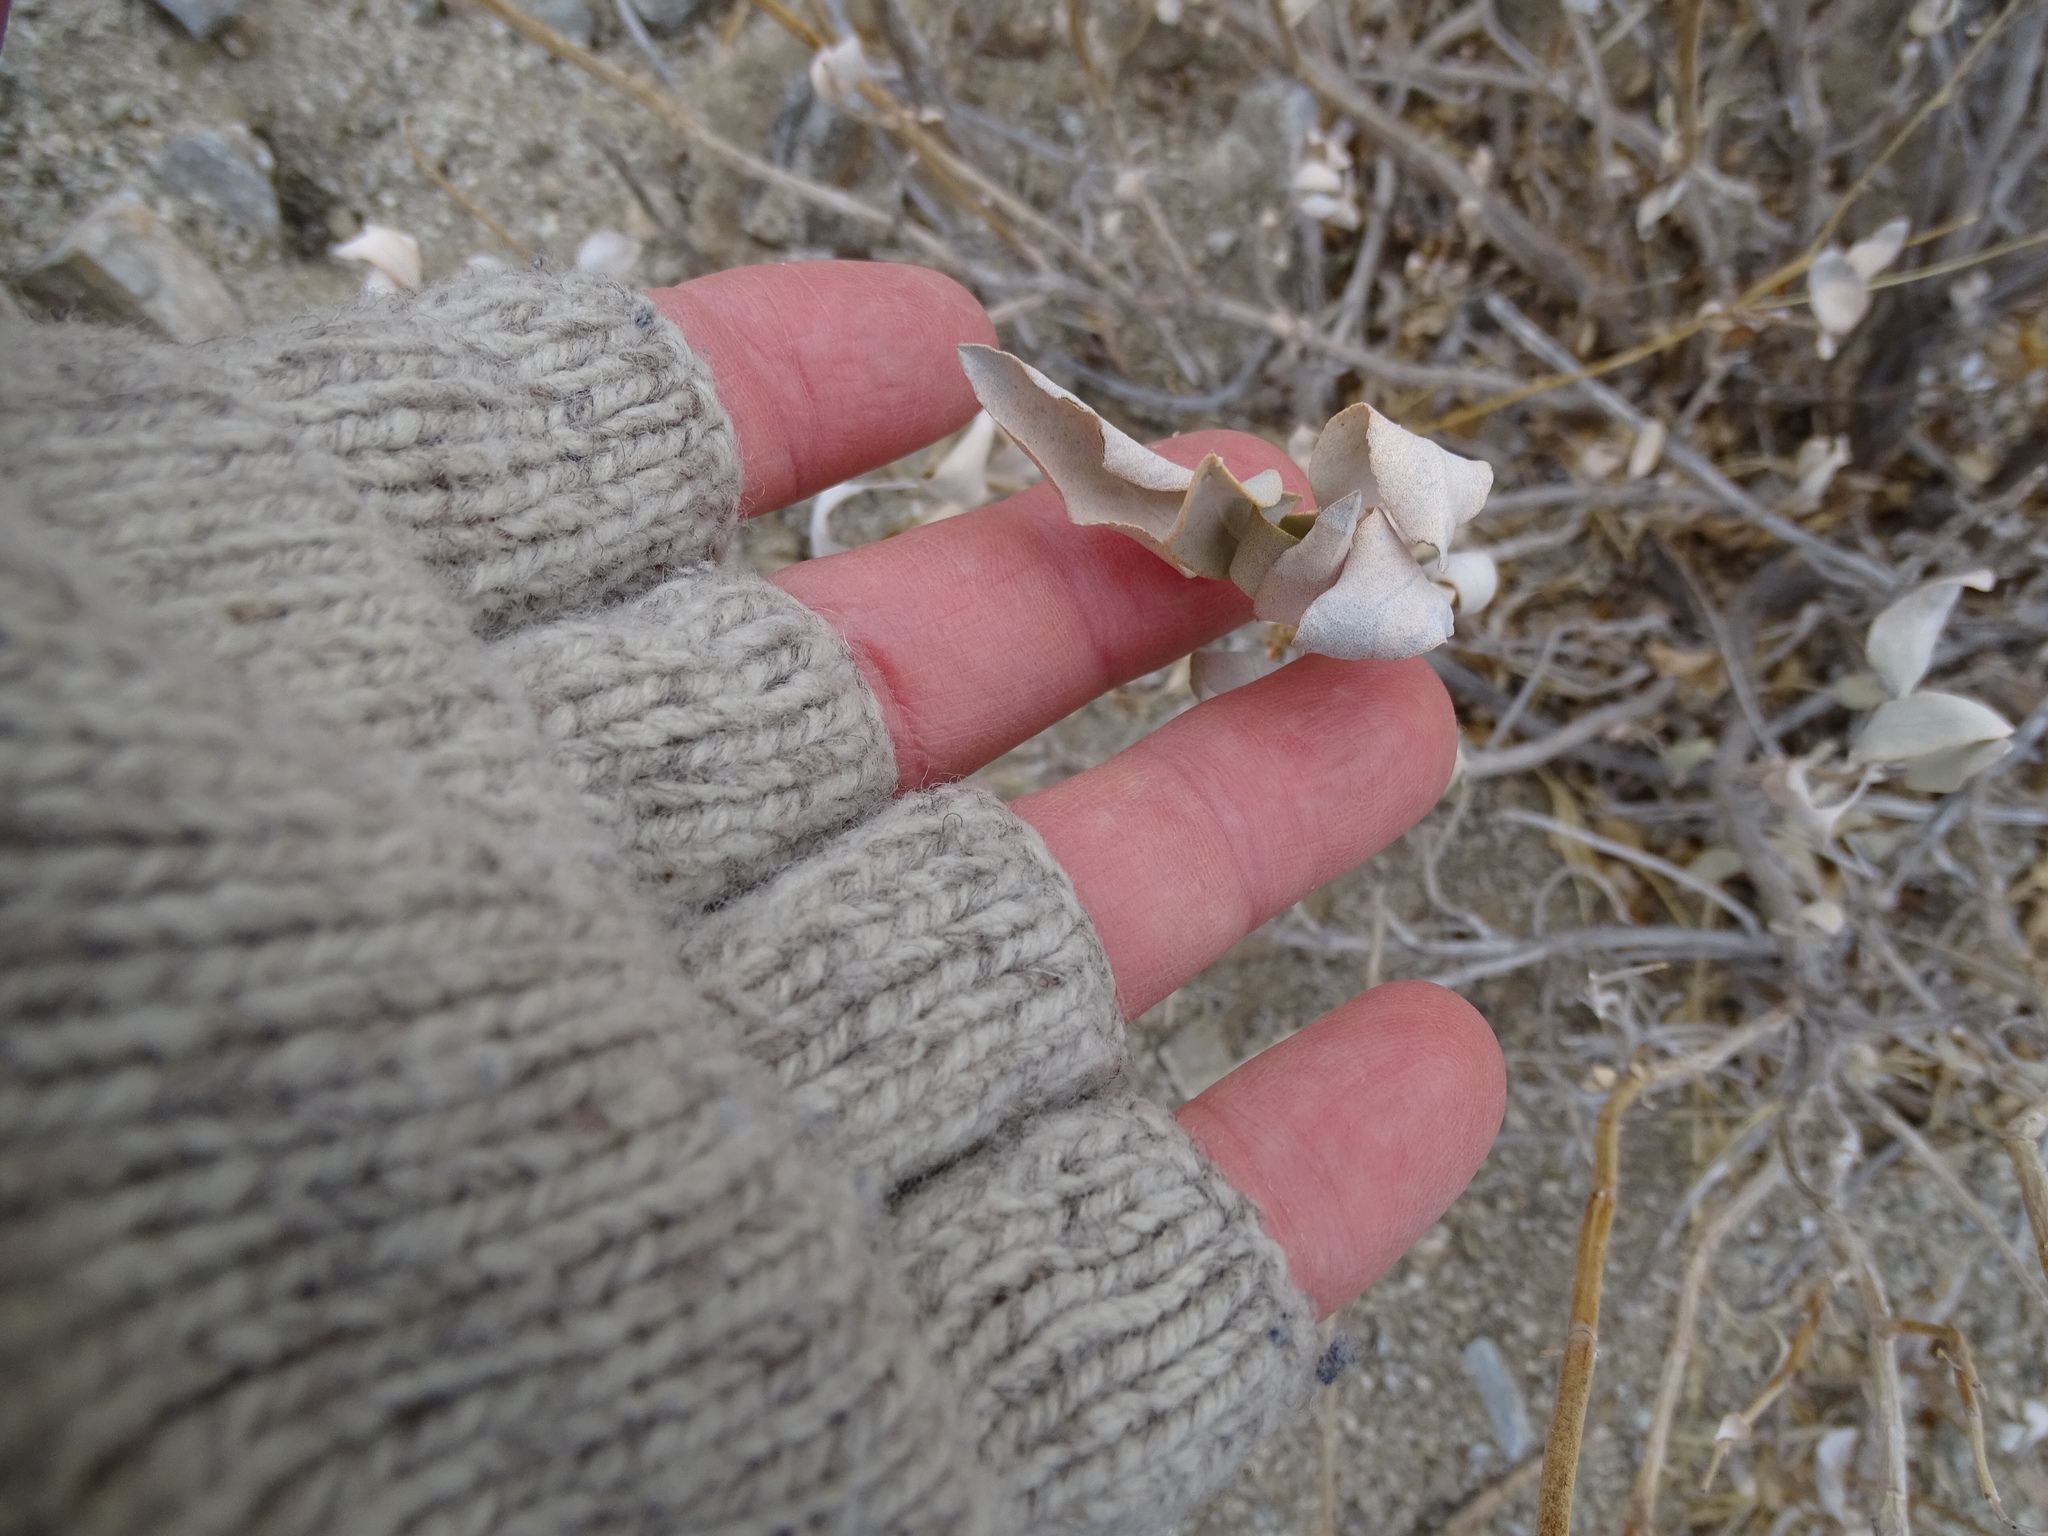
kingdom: Plantae
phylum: Tracheophyta
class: Magnoliopsida
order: Lamiales
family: Lamiaceae
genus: Salvia
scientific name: Salvia vaseyi
